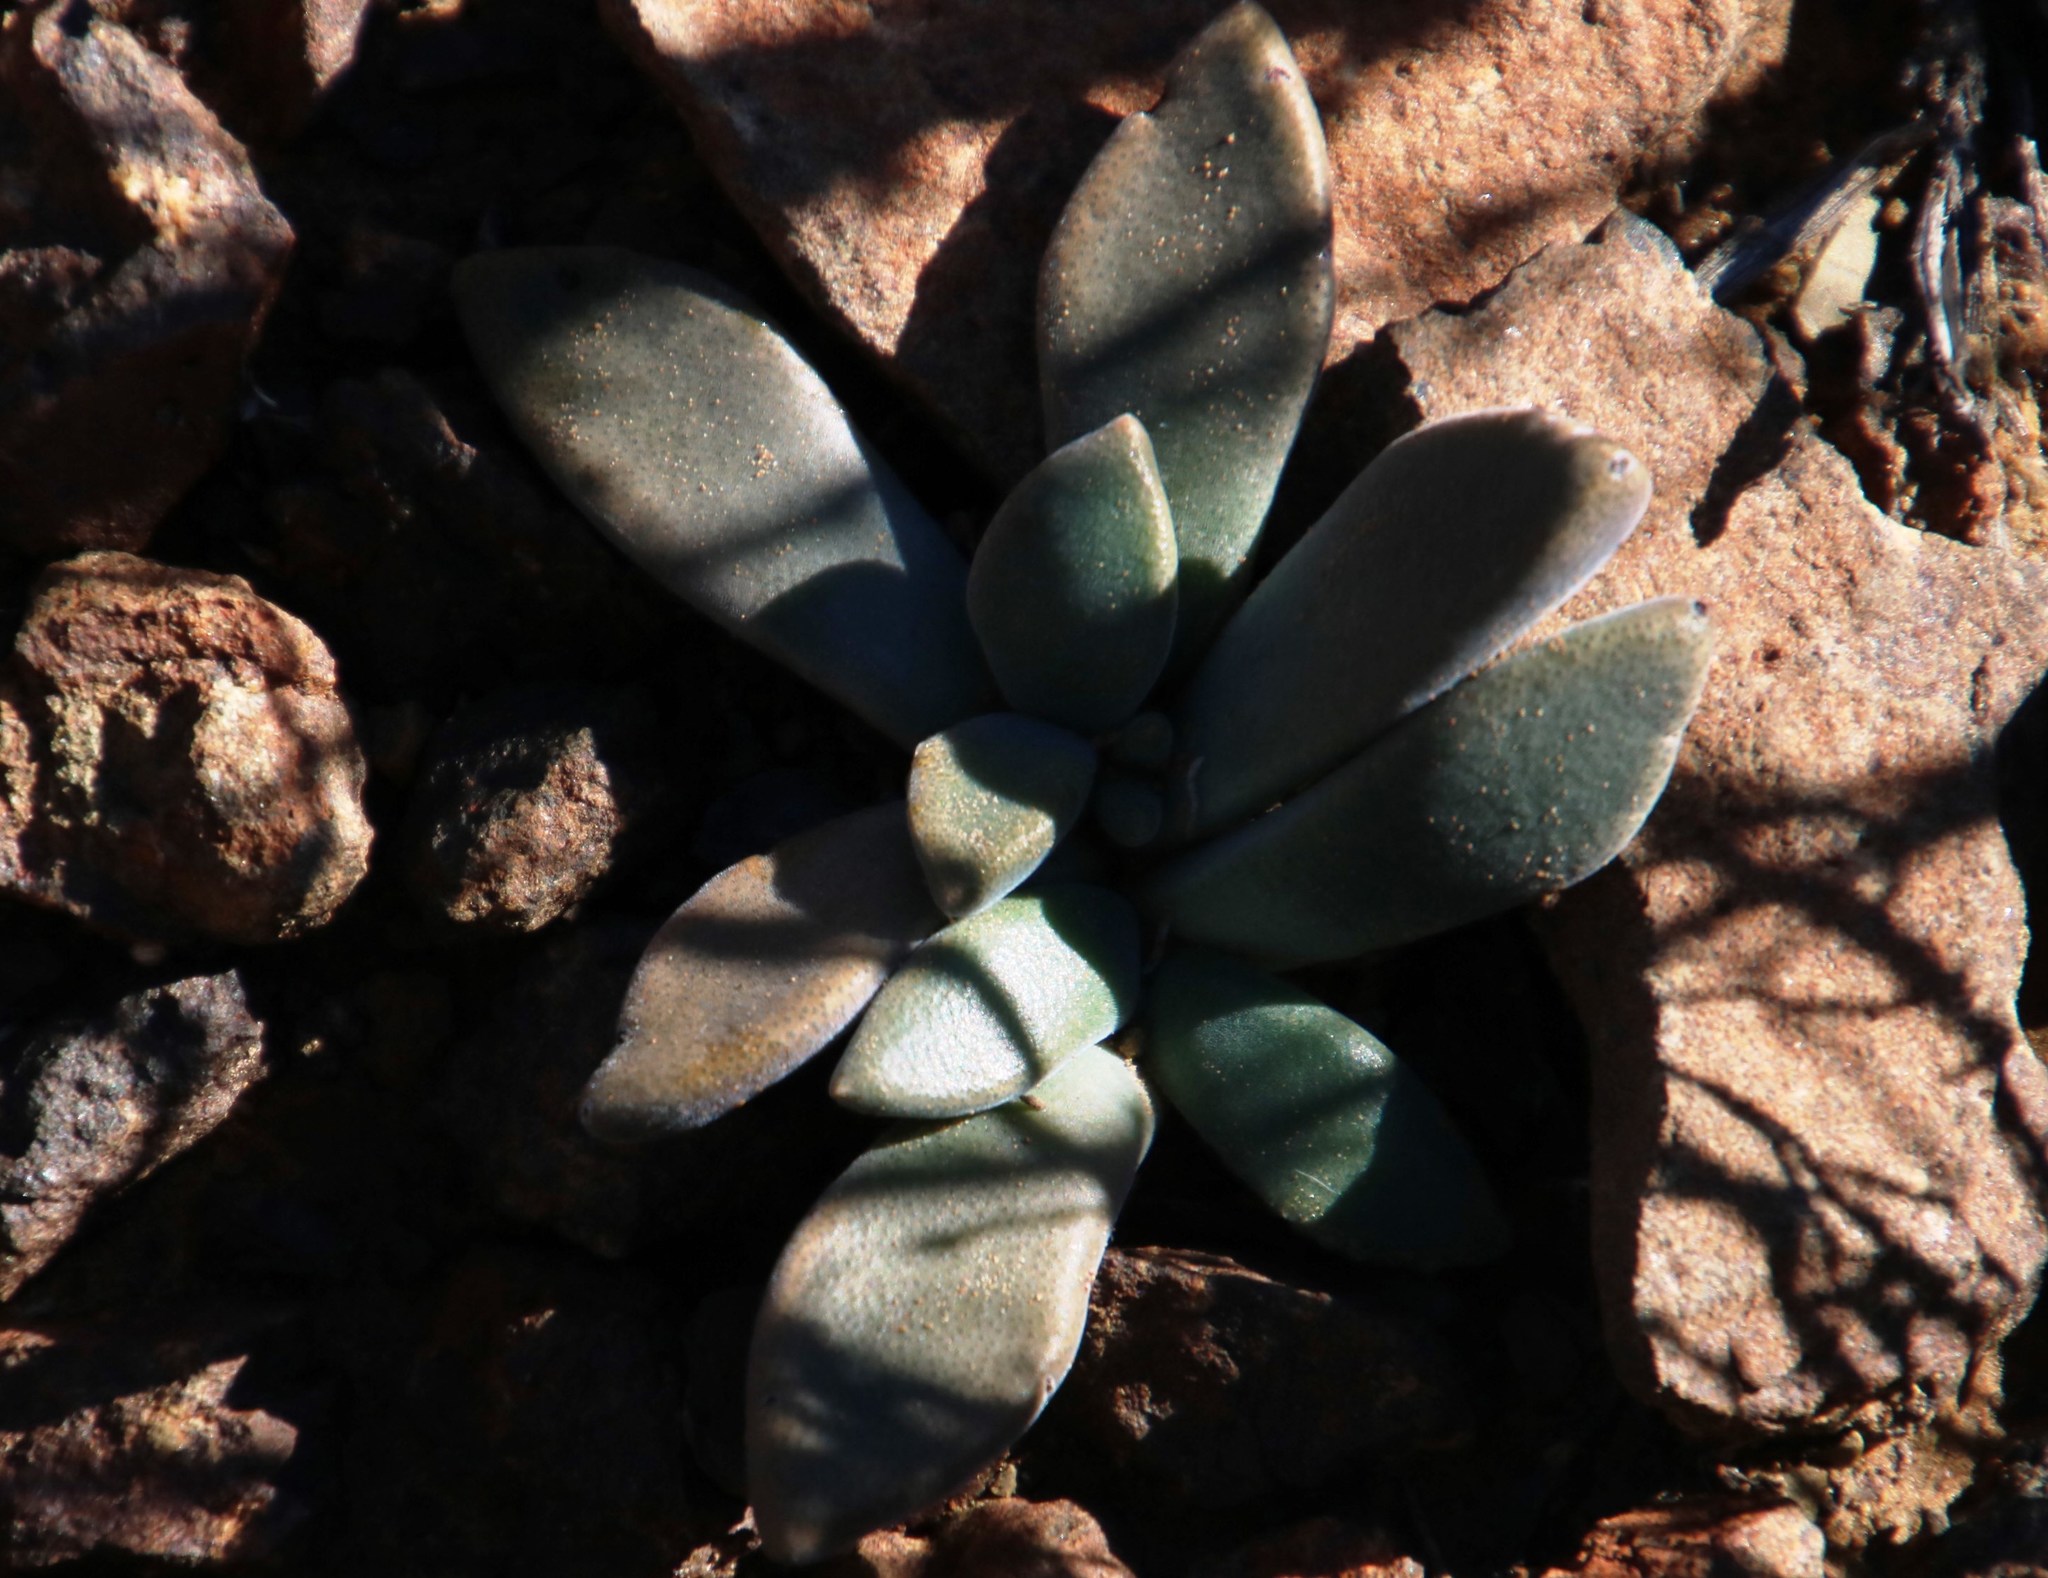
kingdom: Plantae
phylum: Tracheophyta
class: Magnoliopsida
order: Caryophyllales
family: Aizoaceae
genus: Deilanthe
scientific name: Deilanthe peersii
